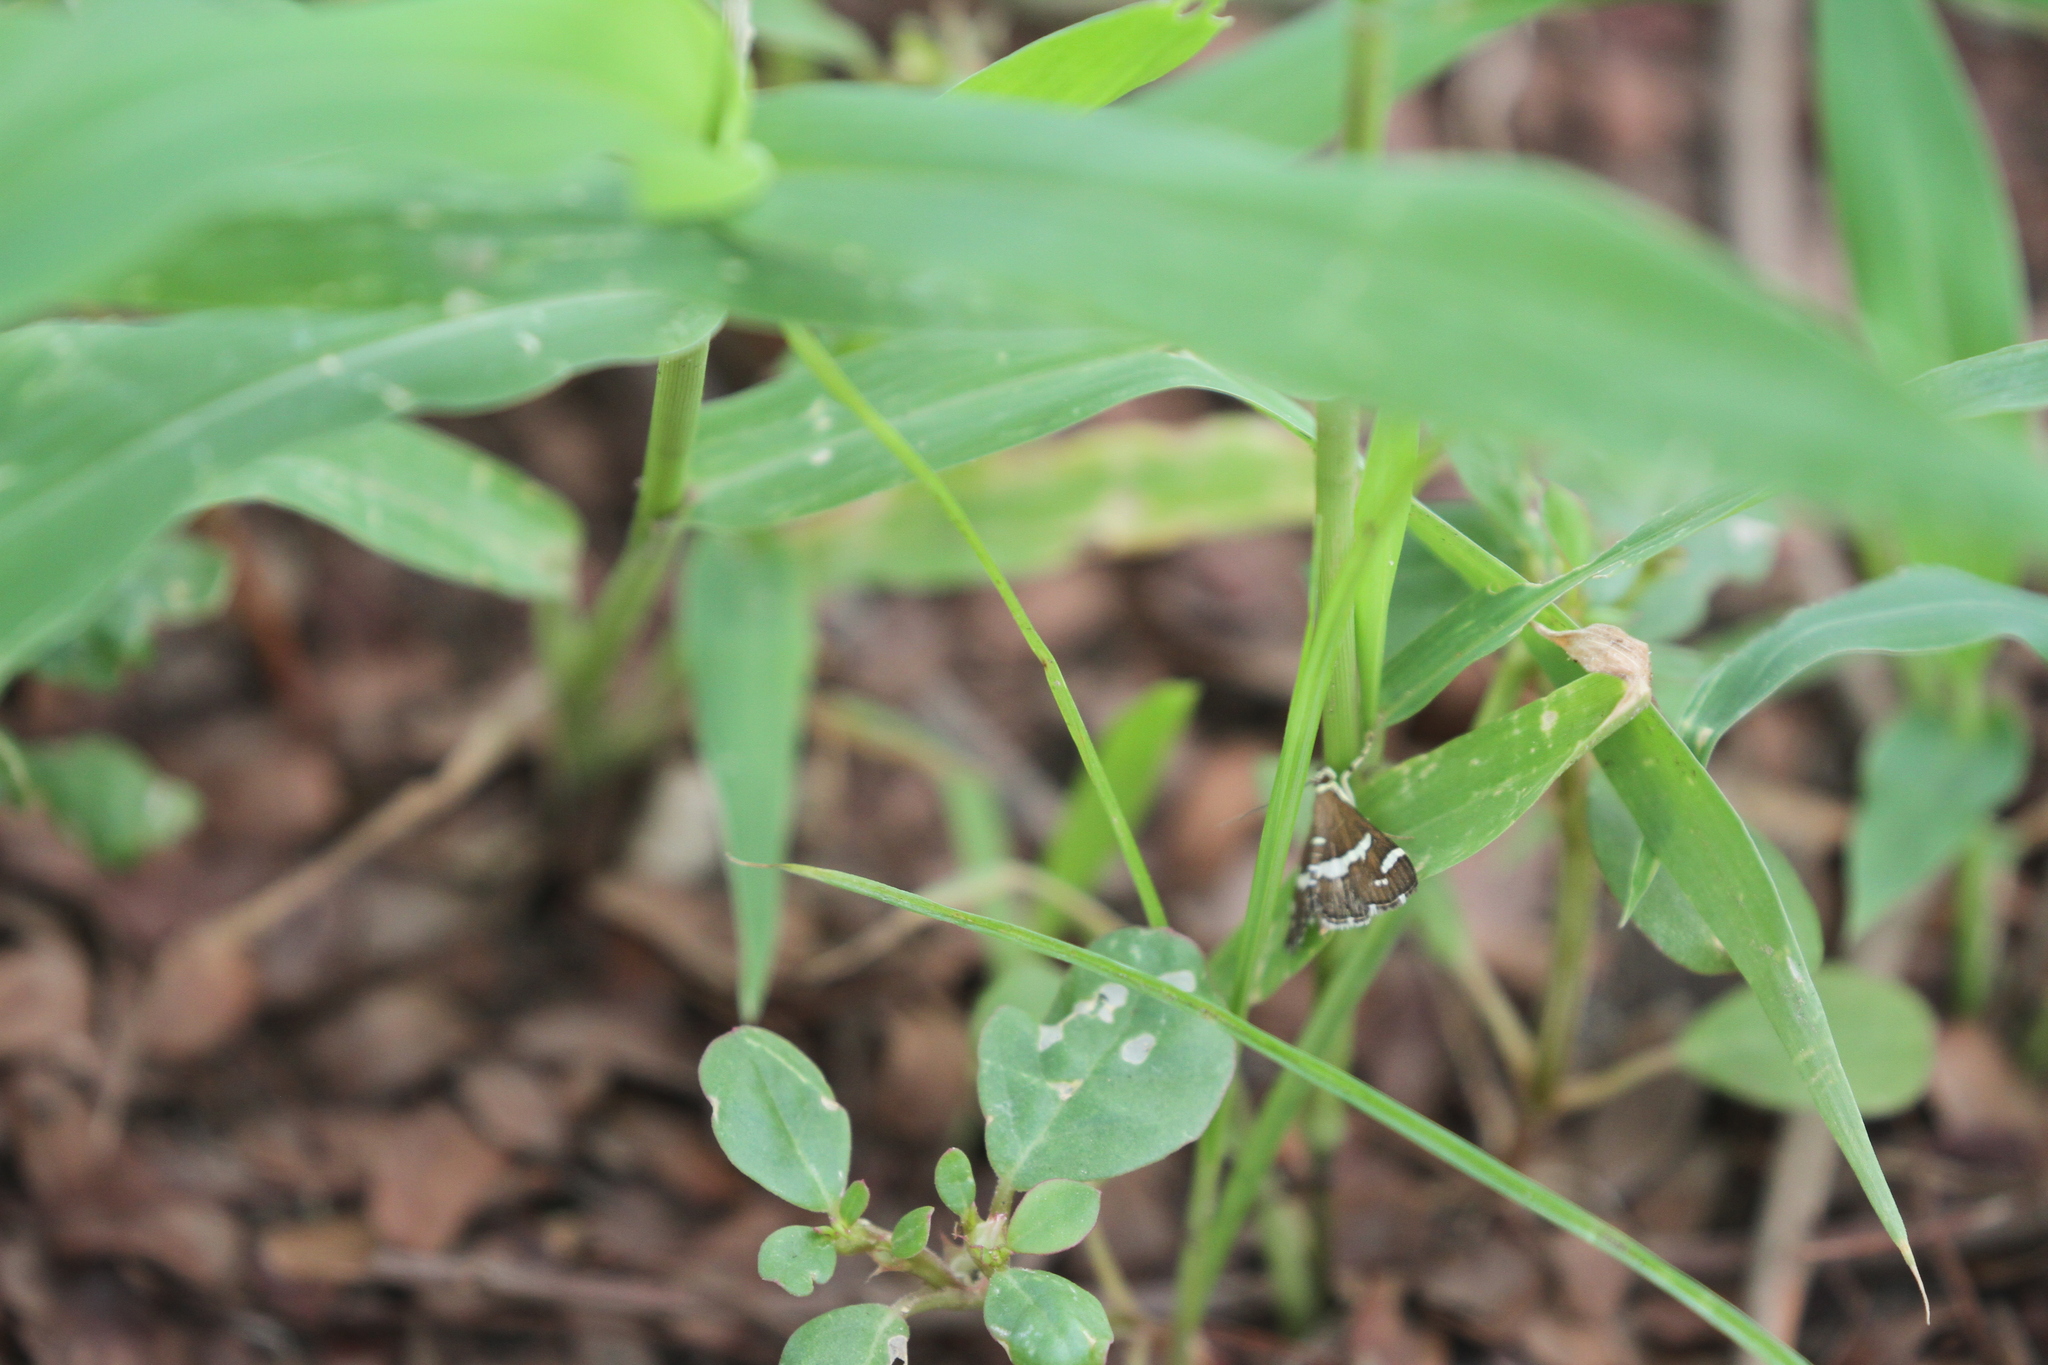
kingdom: Animalia
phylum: Arthropoda
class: Insecta
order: Lepidoptera
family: Crambidae
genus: Spoladea
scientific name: Spoladea recurvalis
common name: Beet webworm moth
